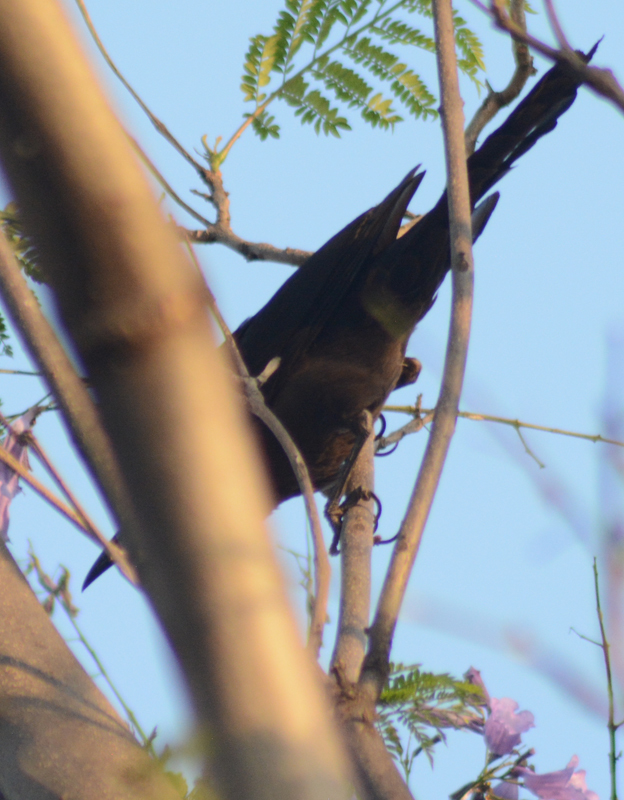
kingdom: Animalia
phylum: Chordata
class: Aves
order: Passeriformes
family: Icteridae
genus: Quiscalus
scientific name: Quiscalus mexicanus
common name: Great-tailed grackle
